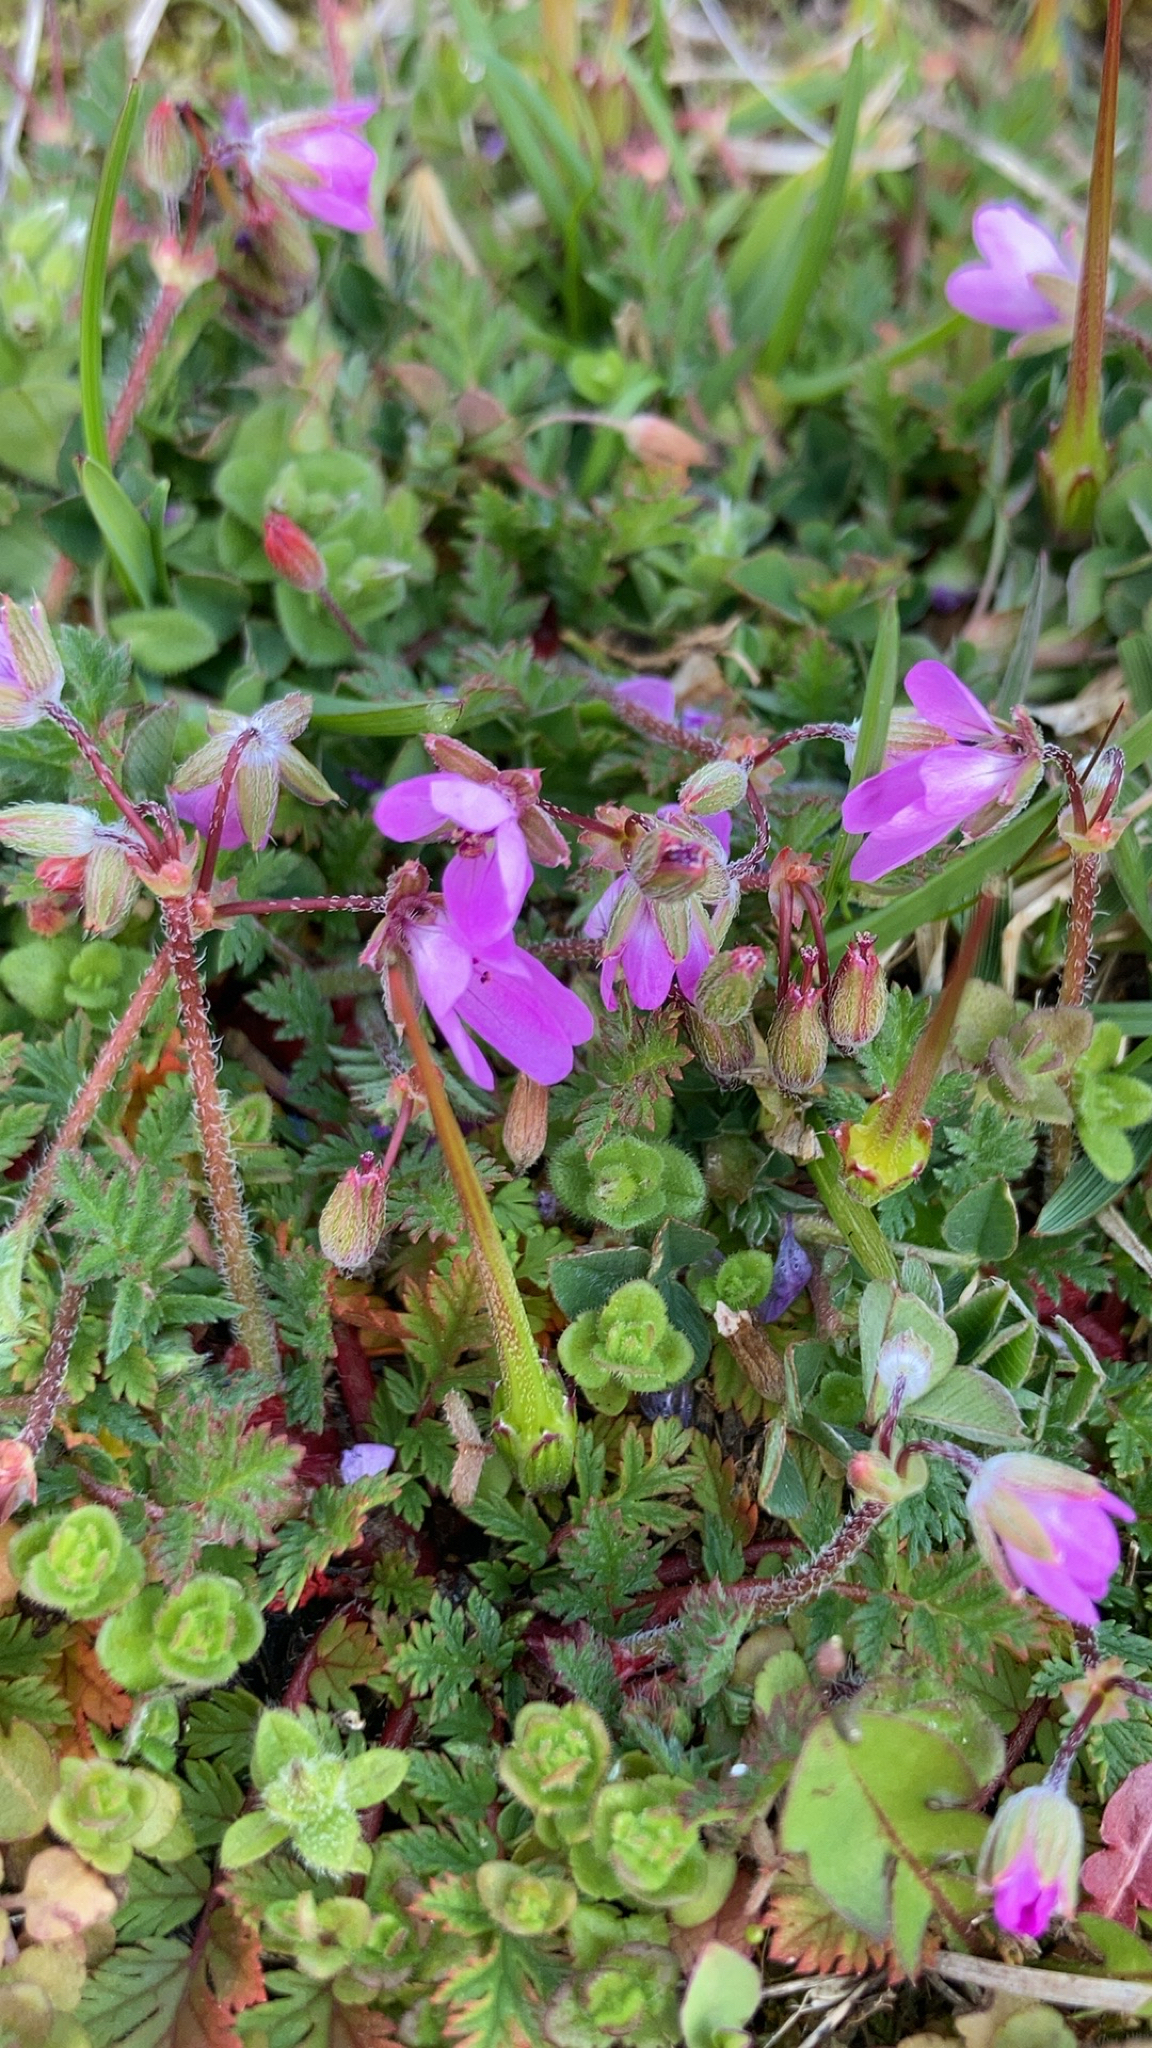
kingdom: Plantae
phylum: Tracheophyta
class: Magnoliopsida
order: Geraniales
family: Geraniaceae
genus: Erodium
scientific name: Erodium cicutarium
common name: Common stork's-bill
